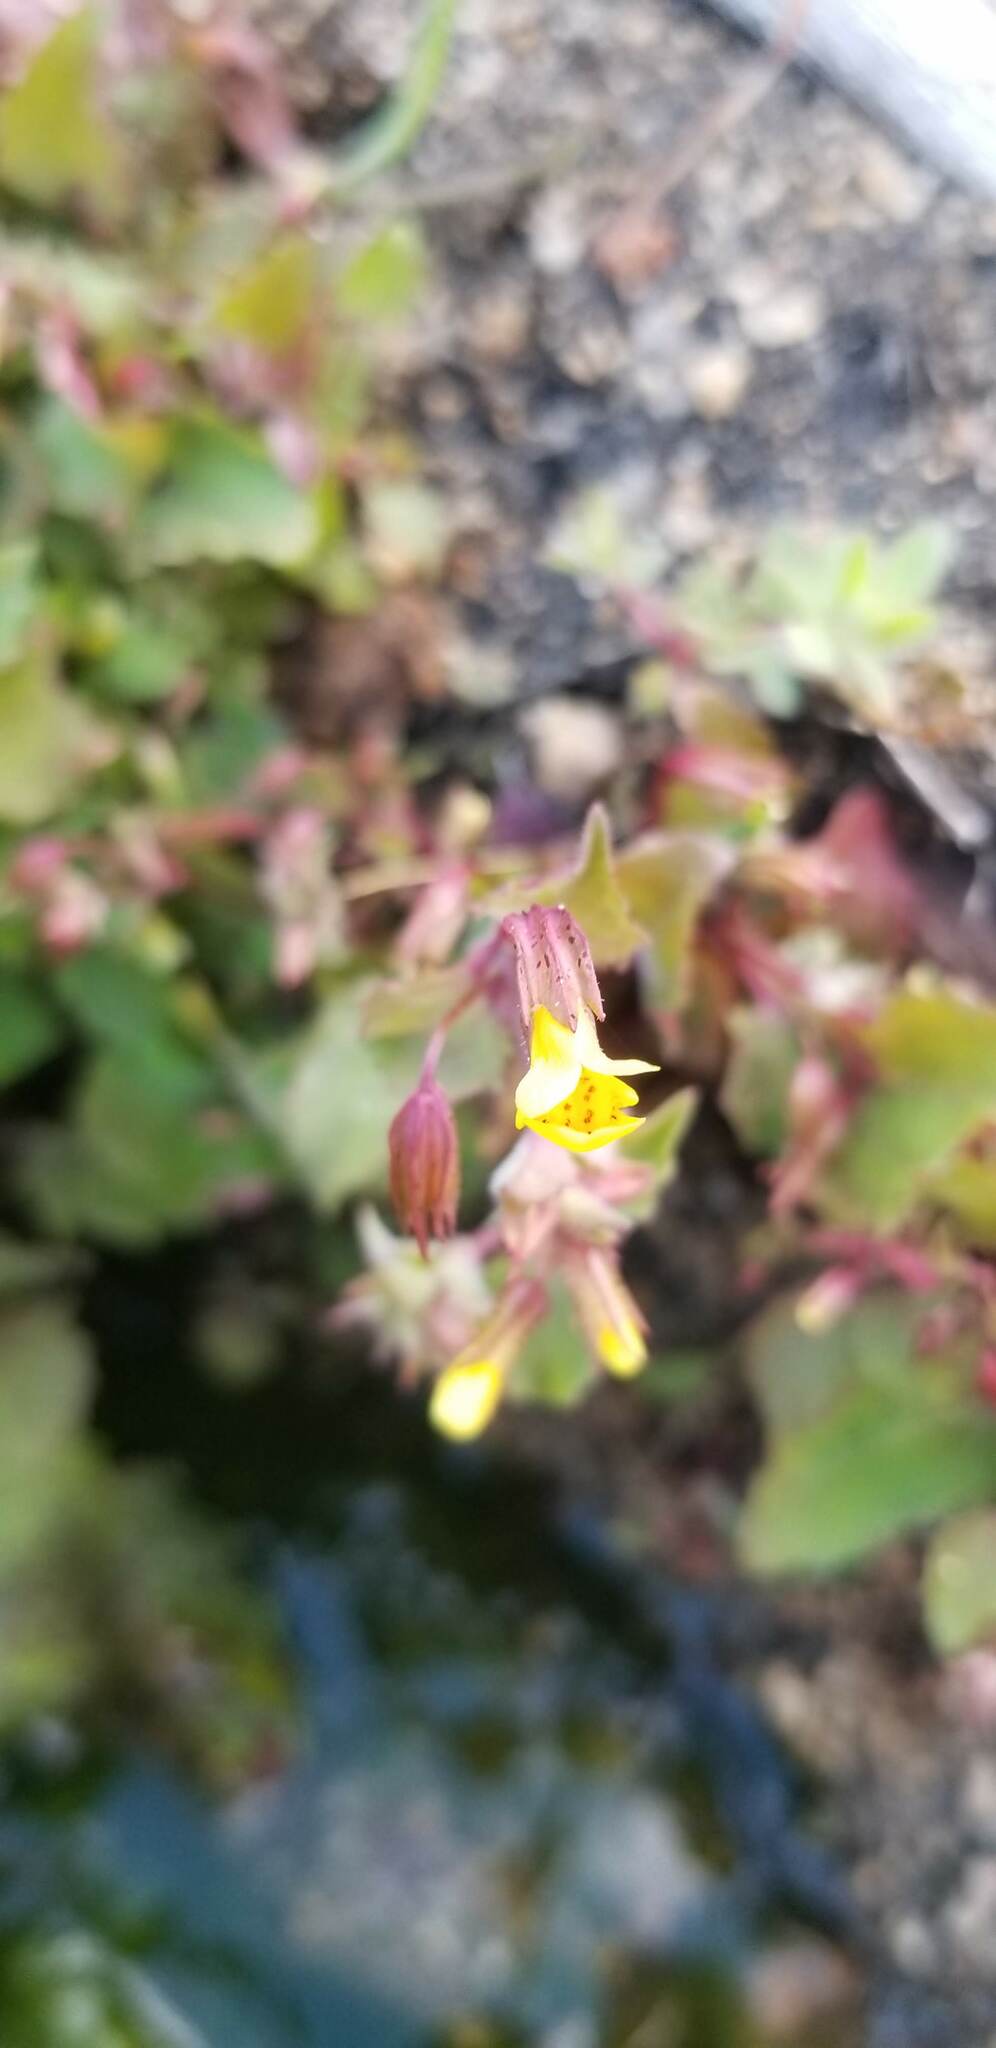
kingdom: Plantae
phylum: Tracheophyta
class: Magnoliopsida
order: Lamiales
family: Phrymaceae
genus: Erythranthe
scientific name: Erythranthe nasuta
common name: Sooke monkeyflower
